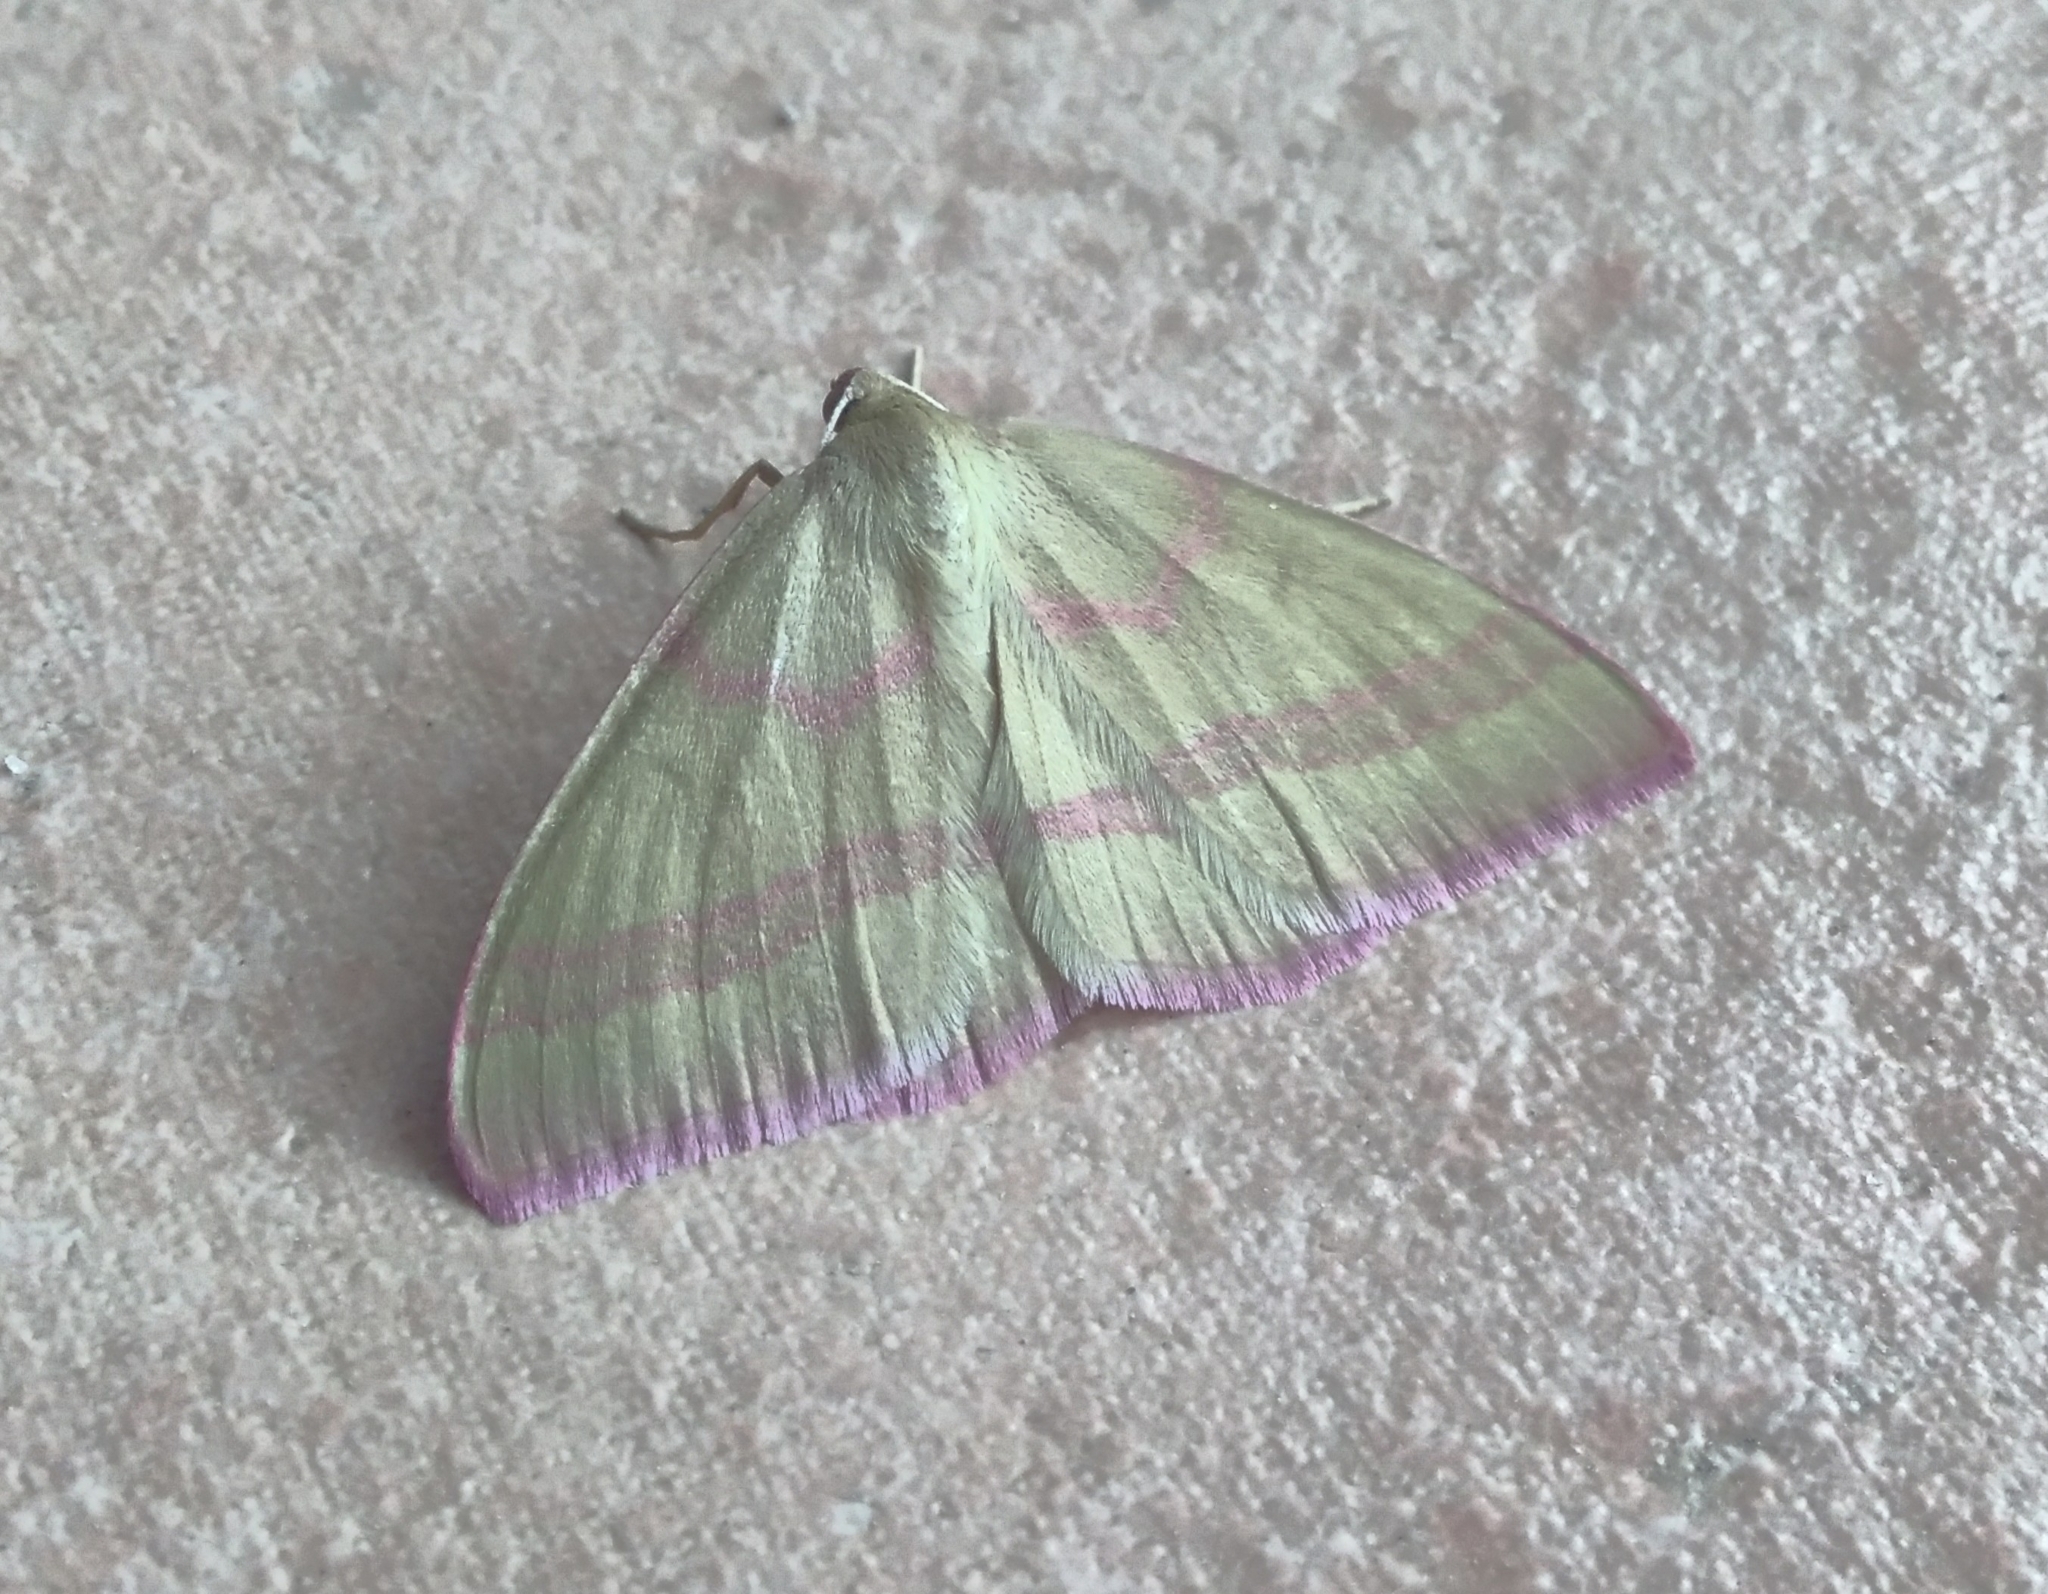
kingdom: Animalia
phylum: Arthropoda
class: Insecta
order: Lepidoptera
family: Geometridae
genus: Rhodostrophia
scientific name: Rhodostrophia calabra
